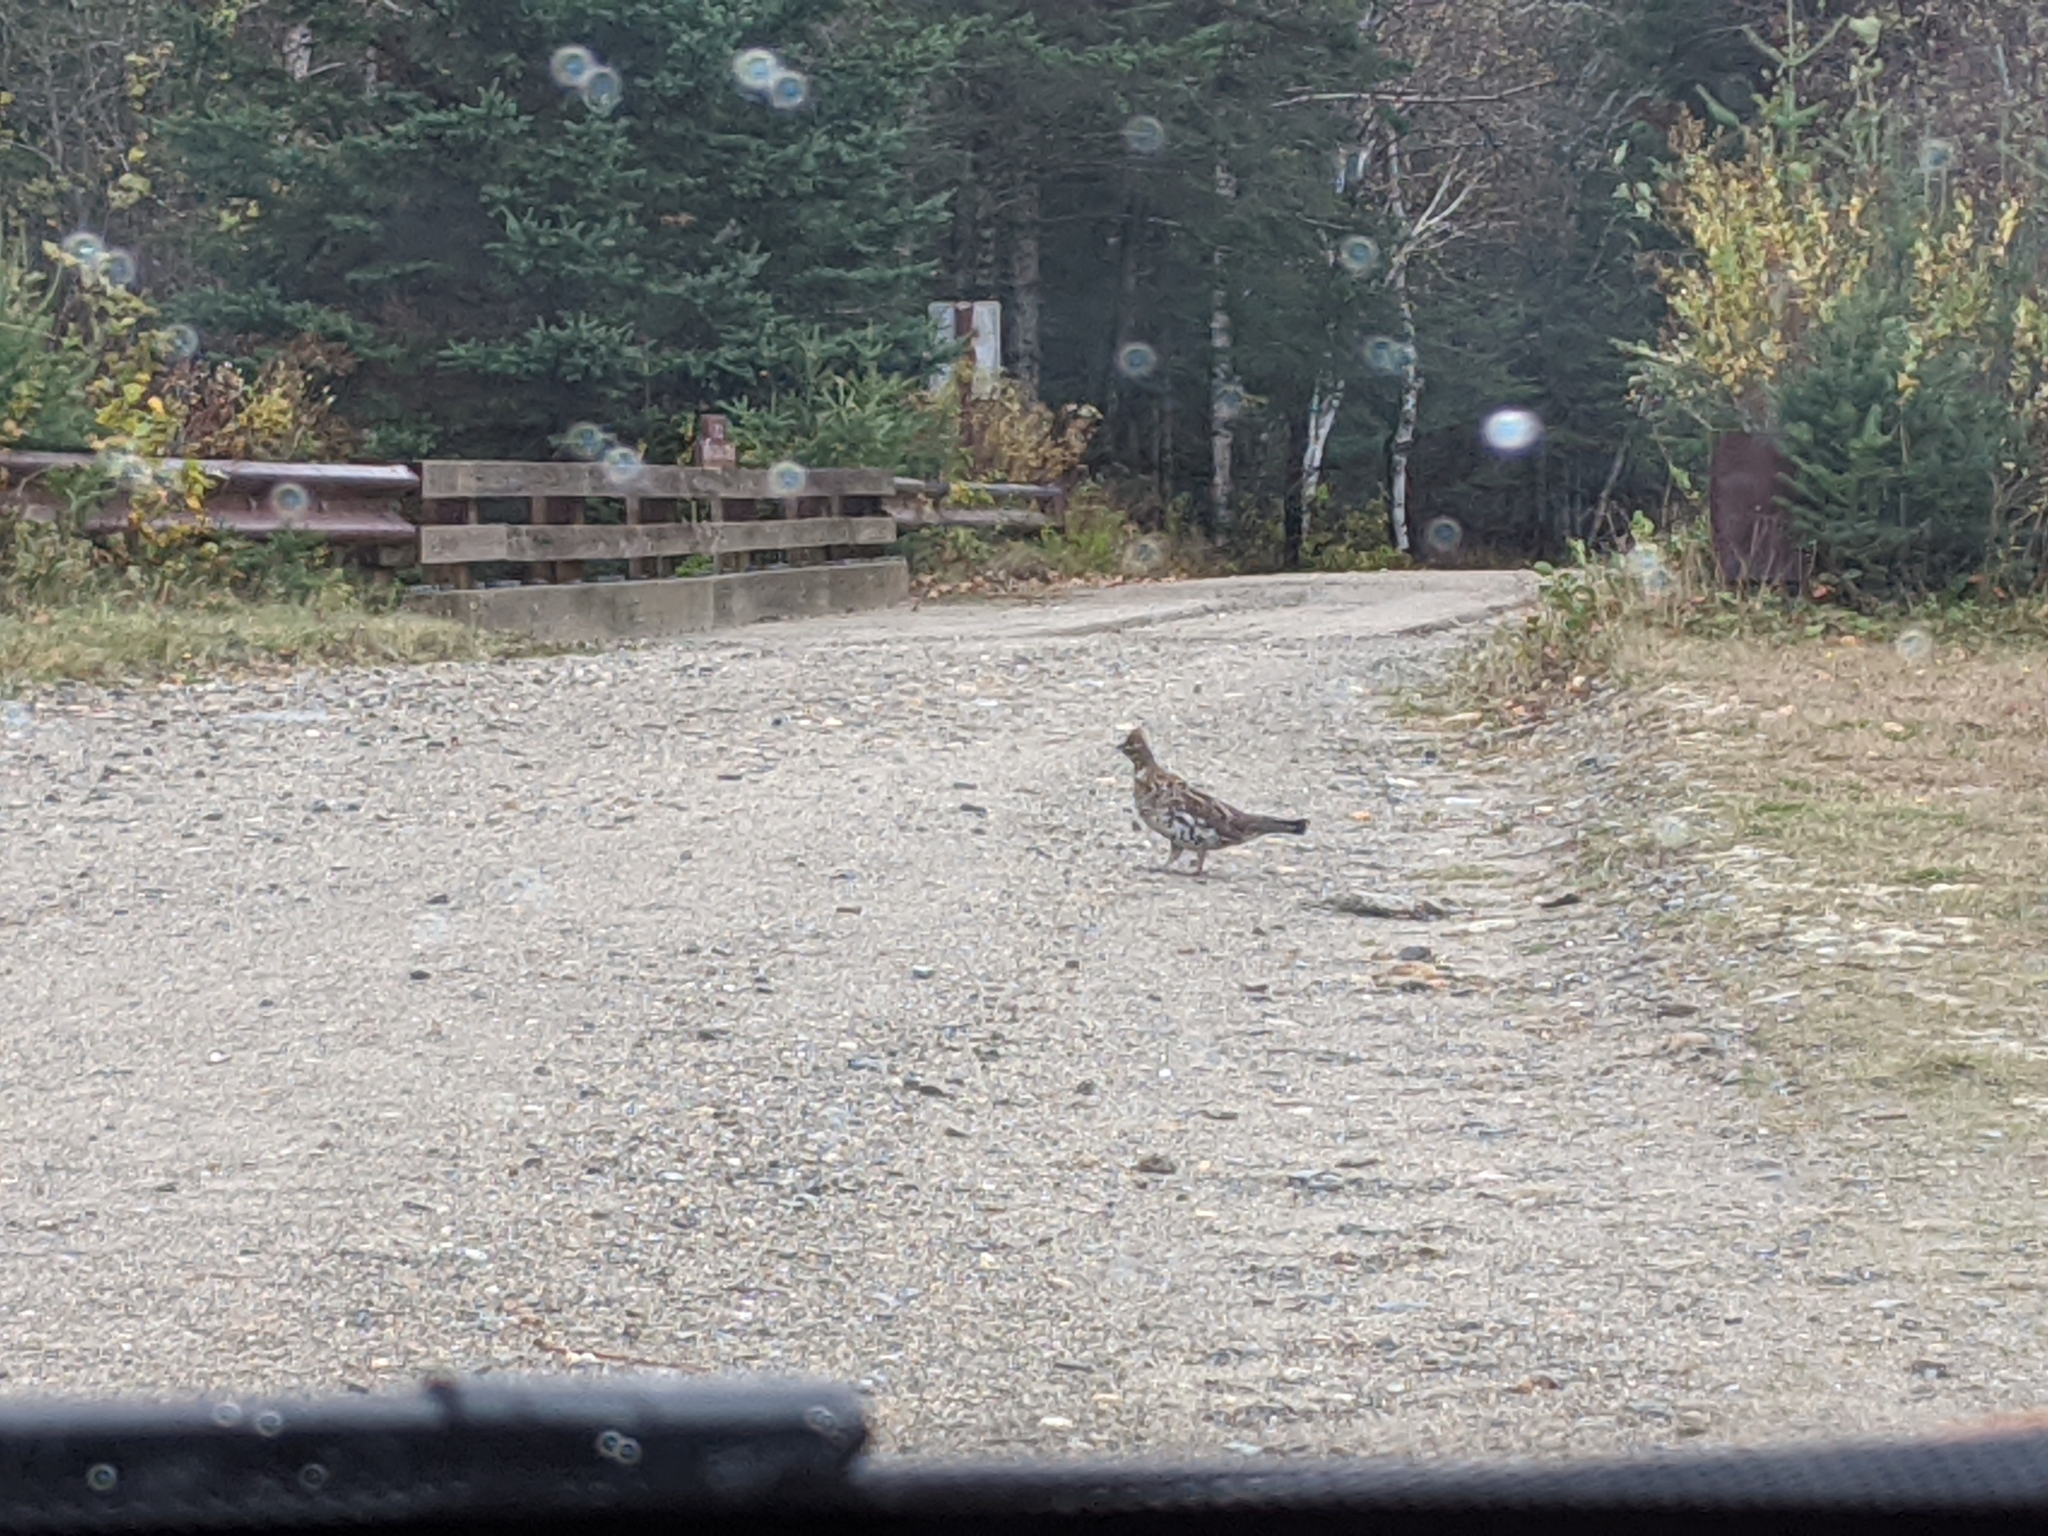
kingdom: Animalia
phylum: Chordata
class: Aves
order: Galliformes
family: Phasianidae
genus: Bonasa
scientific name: Bonasa umbellus
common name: Ruffed grouse
